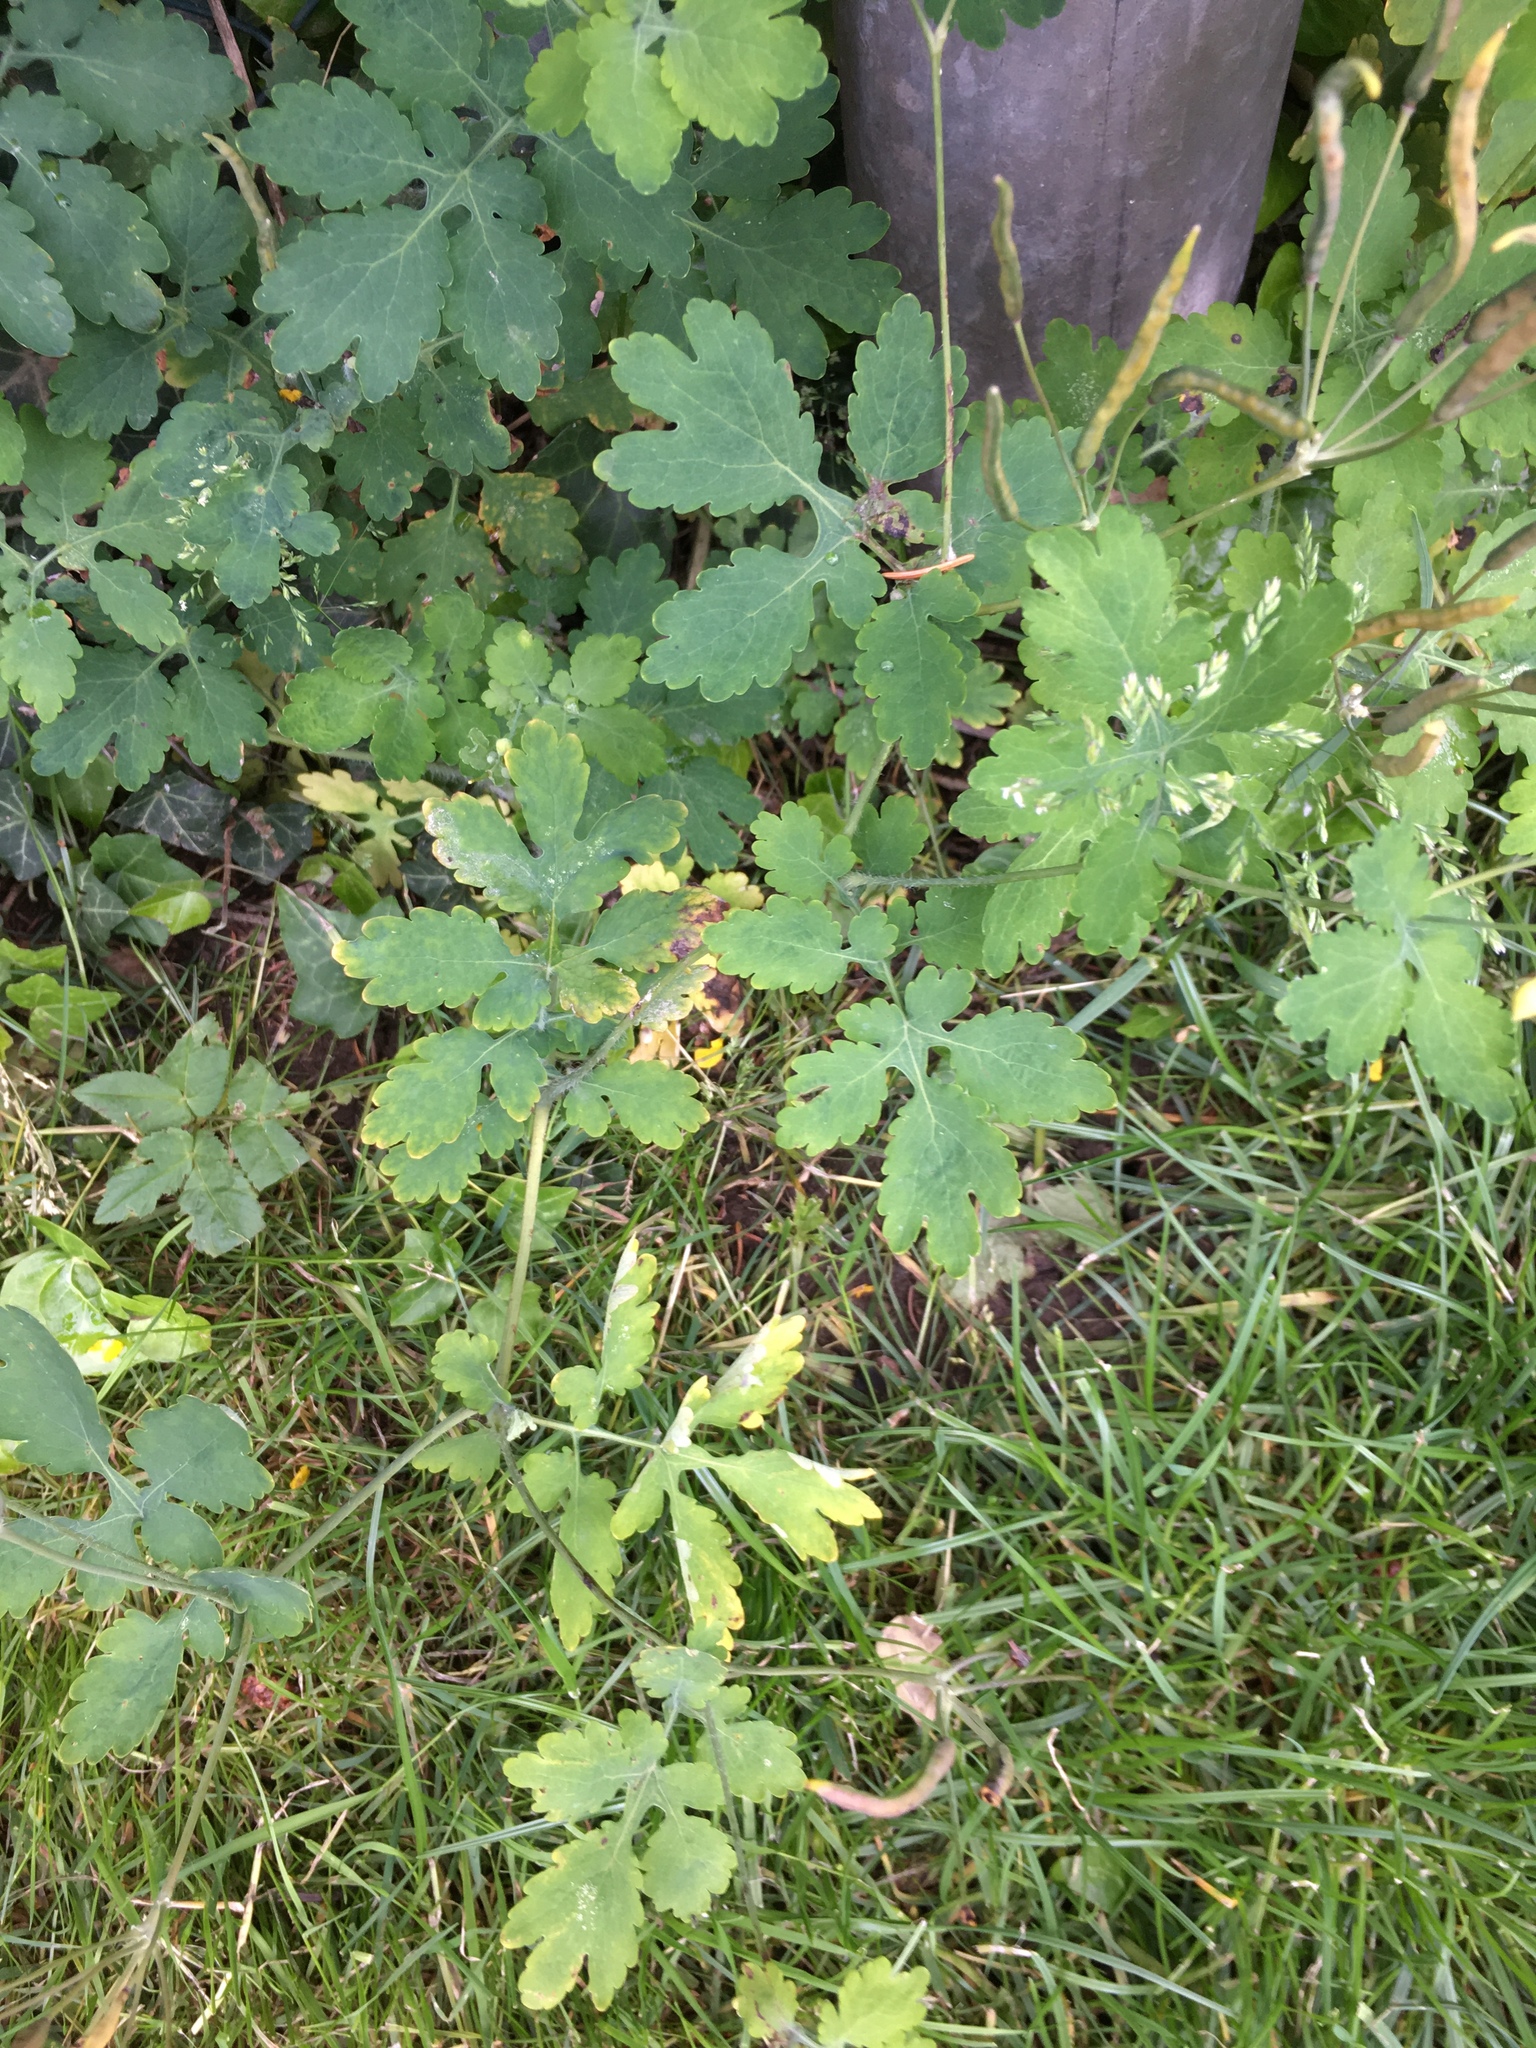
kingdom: Plantae
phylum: Tracheophyta
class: Magnoliopsida
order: Ranunculales
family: Papaveraceae
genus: Chelidonium
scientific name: Chelidonium majus
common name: Greater celandine
